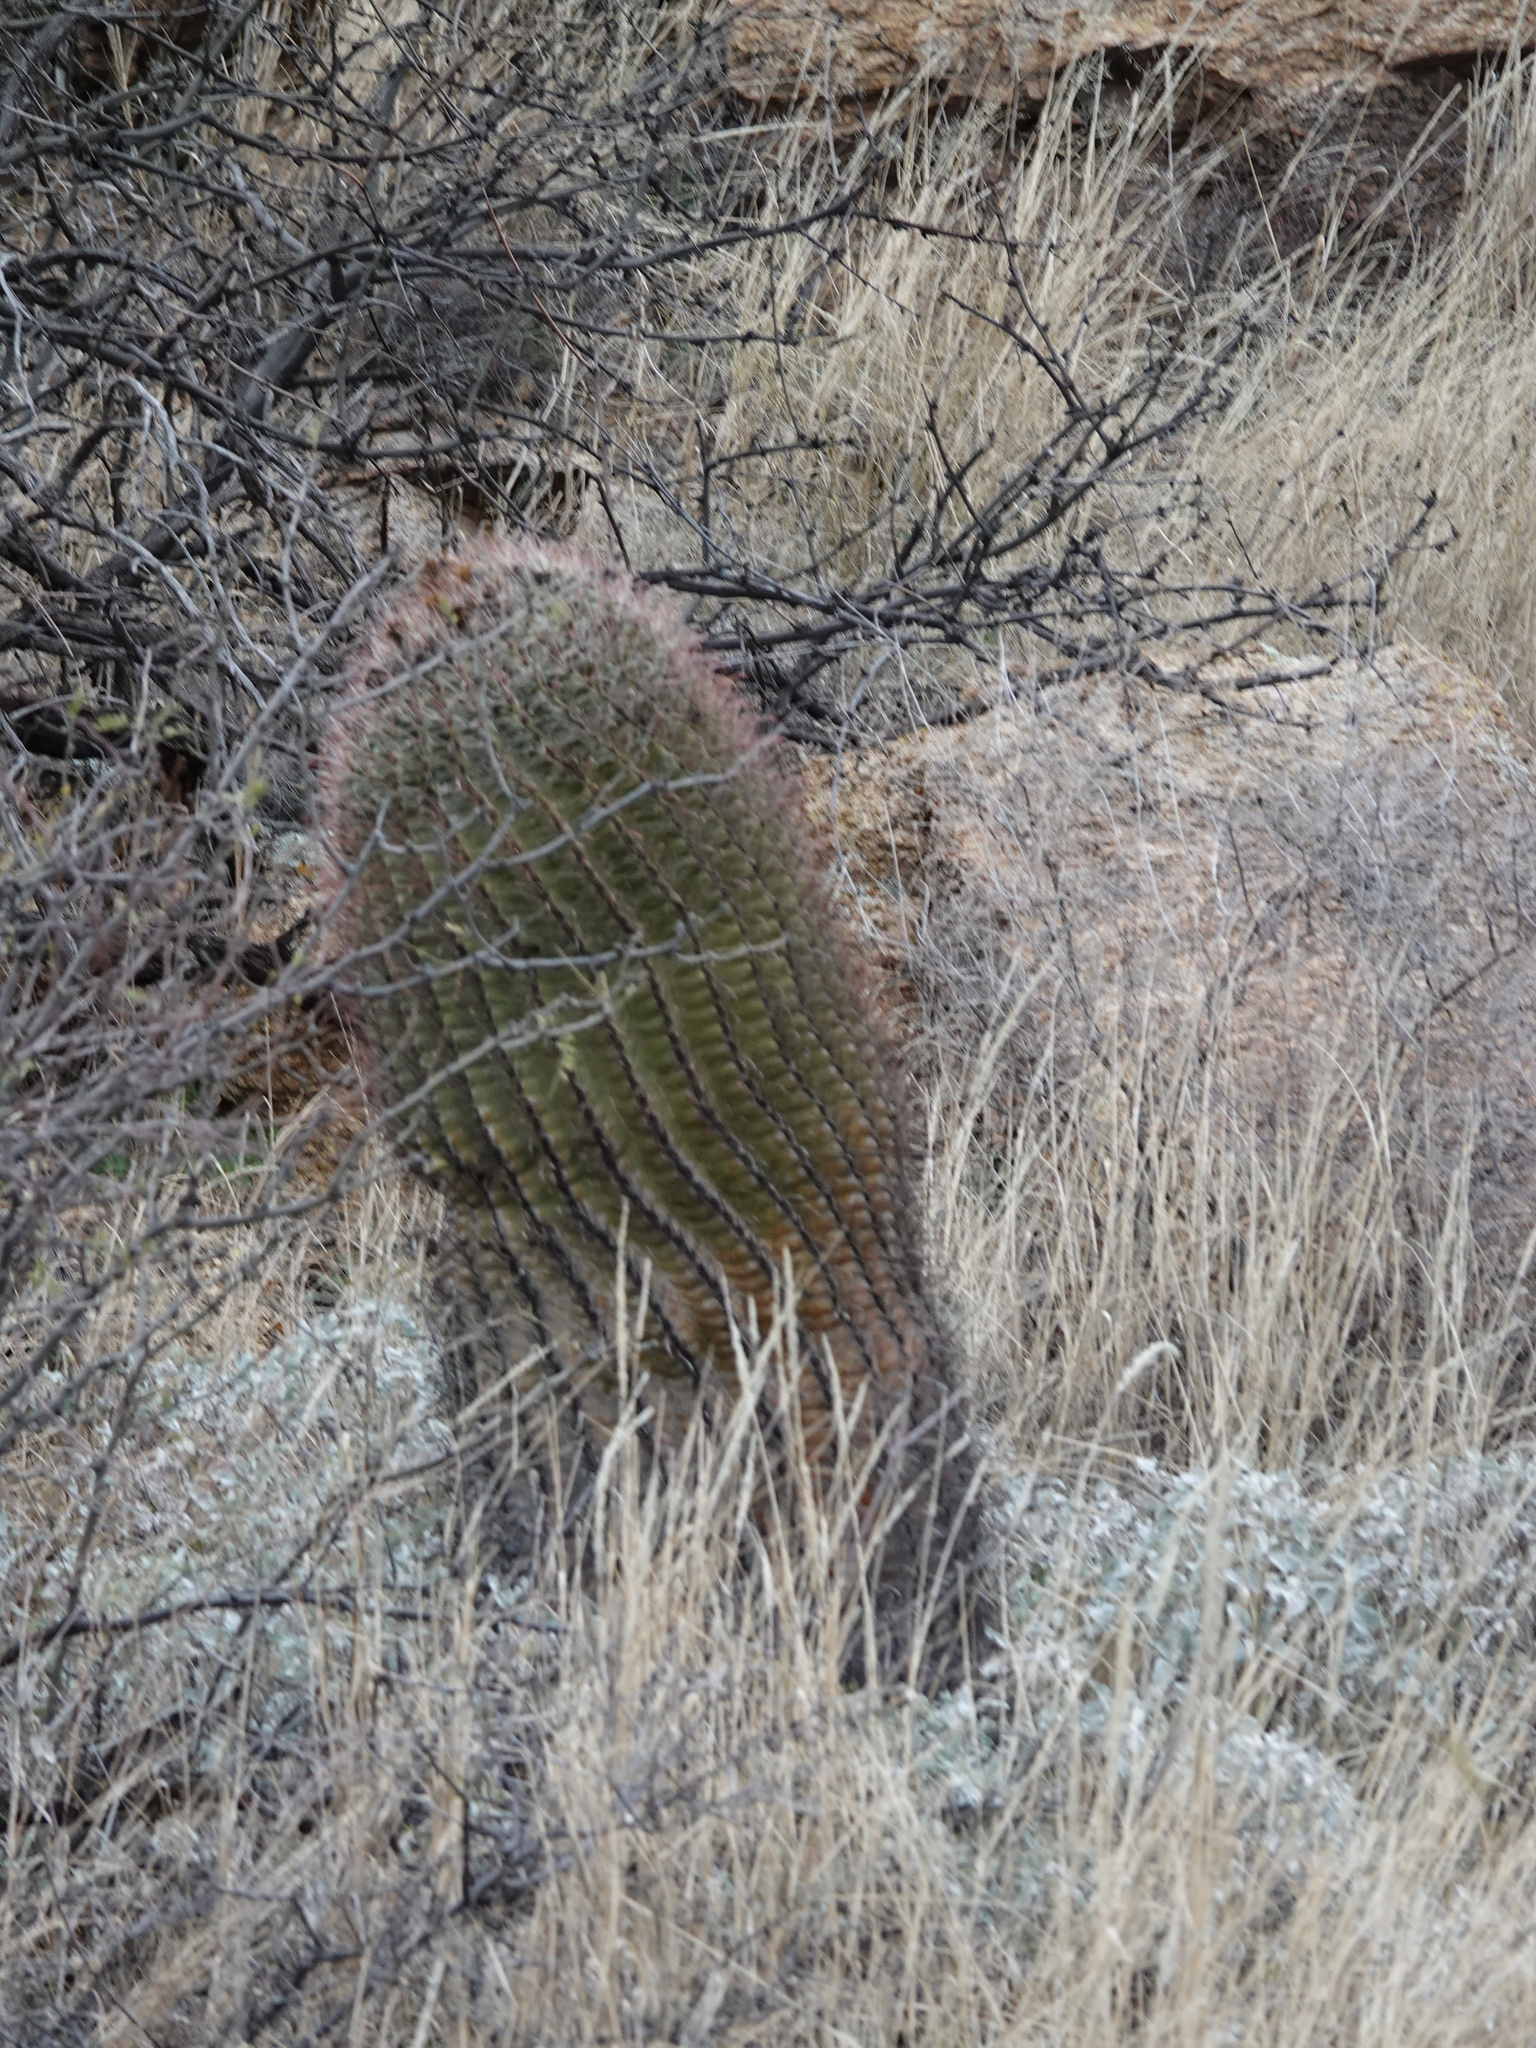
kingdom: Plantae
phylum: Tracheophyta
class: Magnoliopsida
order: Caryophyllales
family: Cactaceae
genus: Ferocactus
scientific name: Ferocactus wislizeni
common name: Candy barrel cactus
